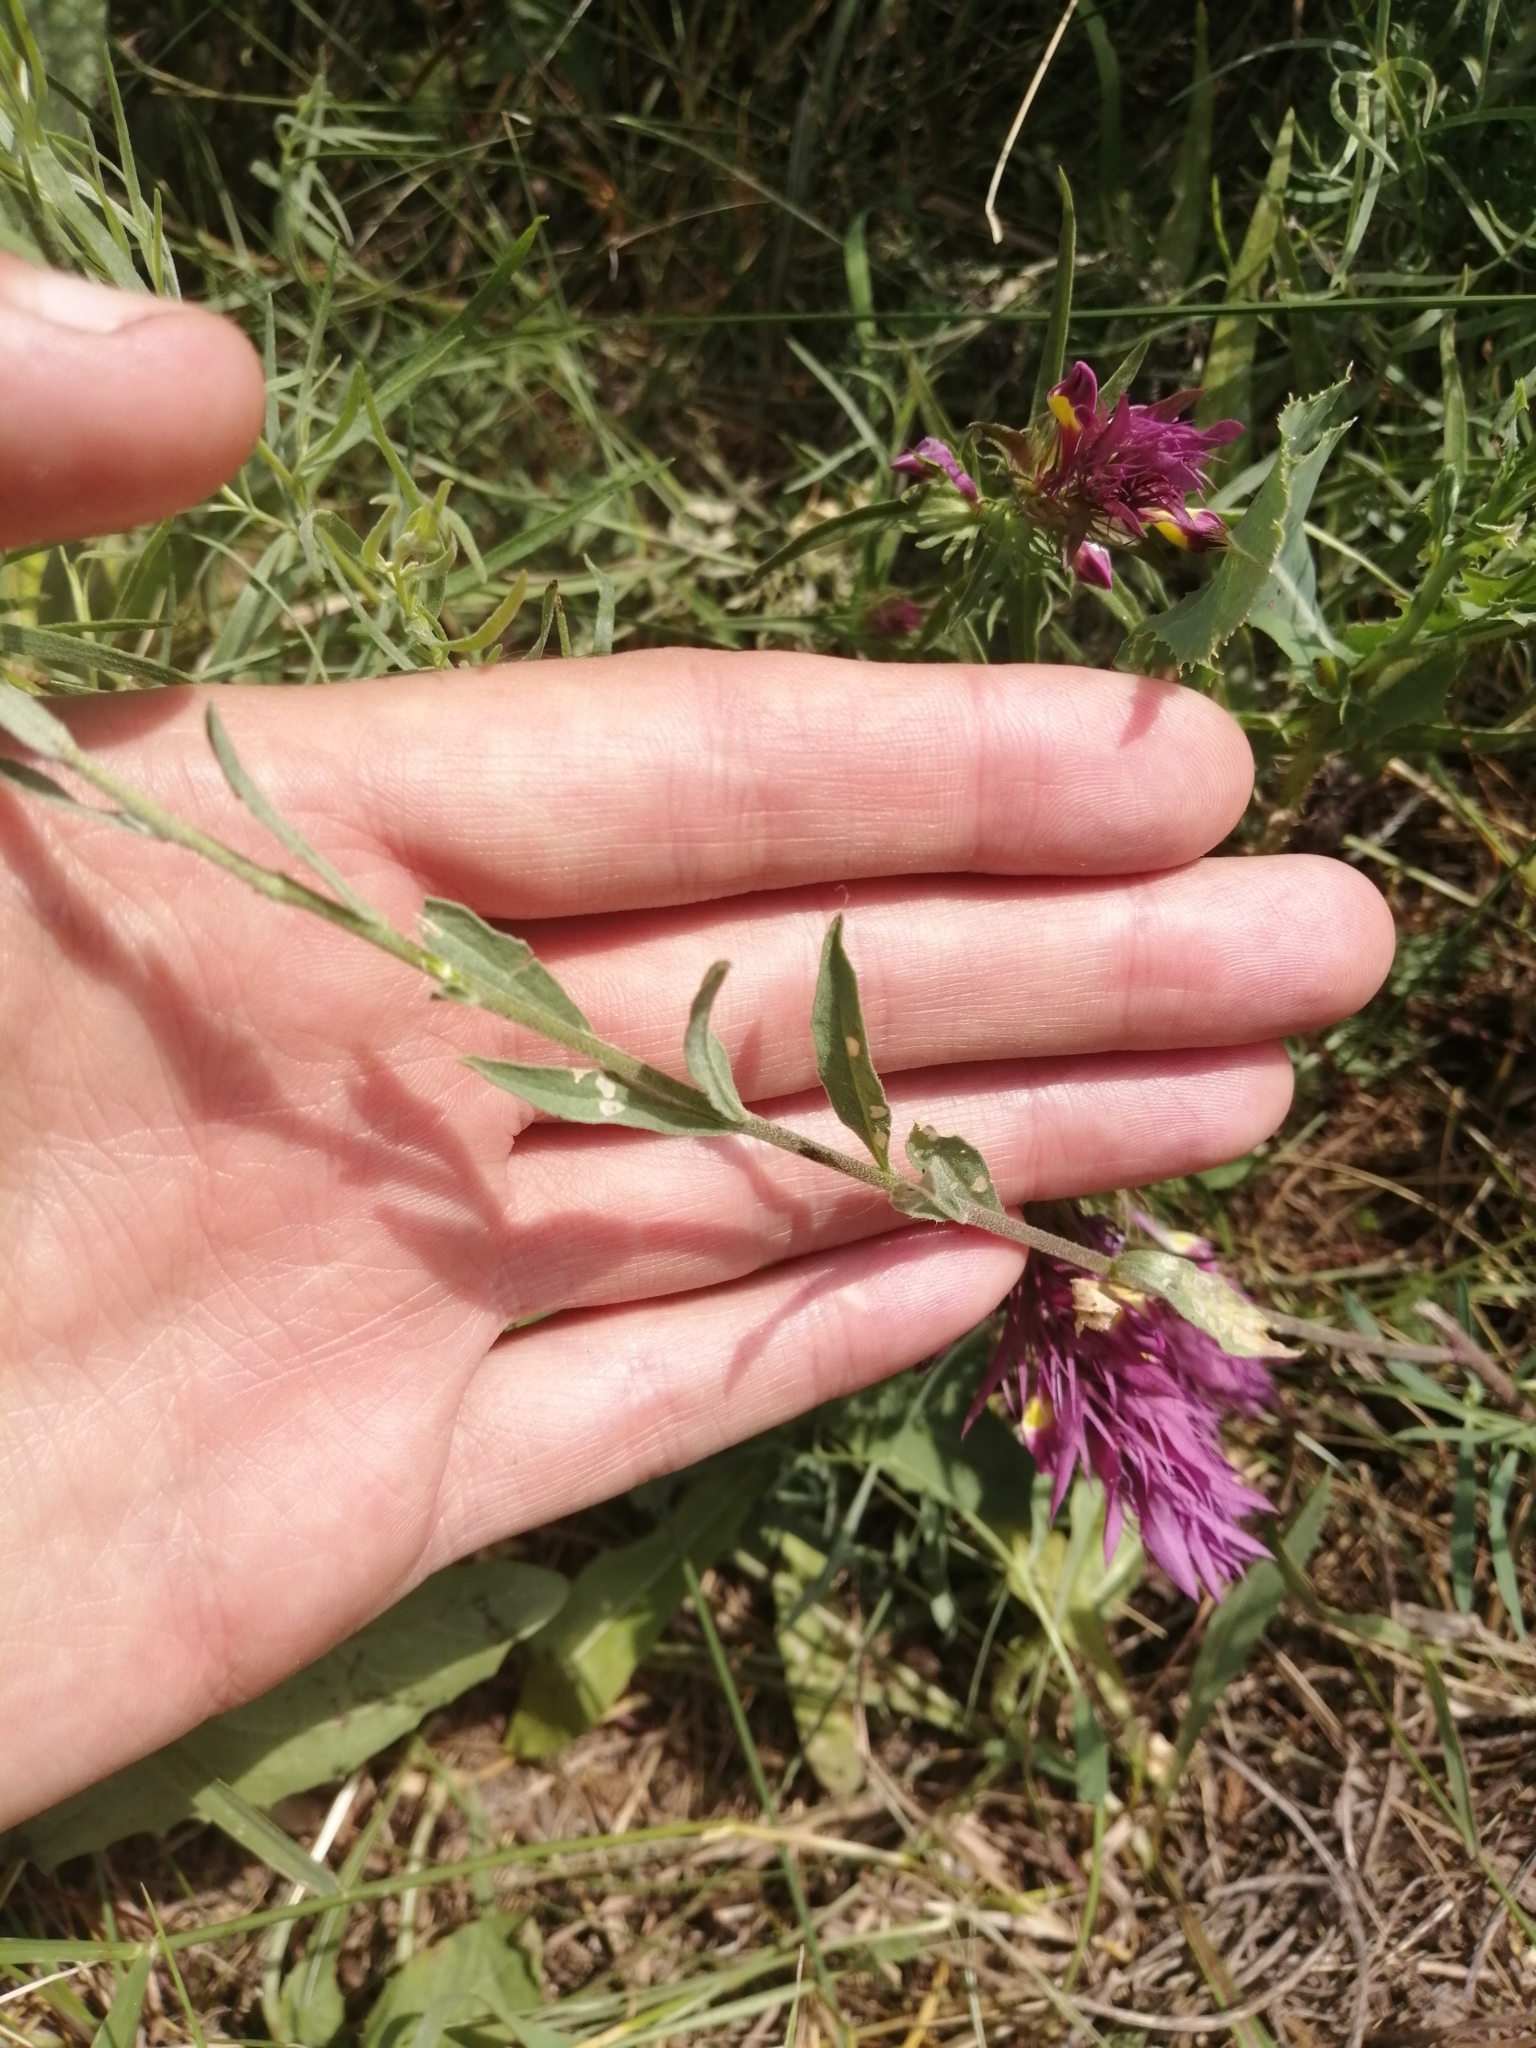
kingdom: Plantae
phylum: Tracheophyta
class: Magnoliopsida
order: Brassicales
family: Brassicaceae
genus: Berteroa
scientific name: Berteroa incana
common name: Hoary alison
